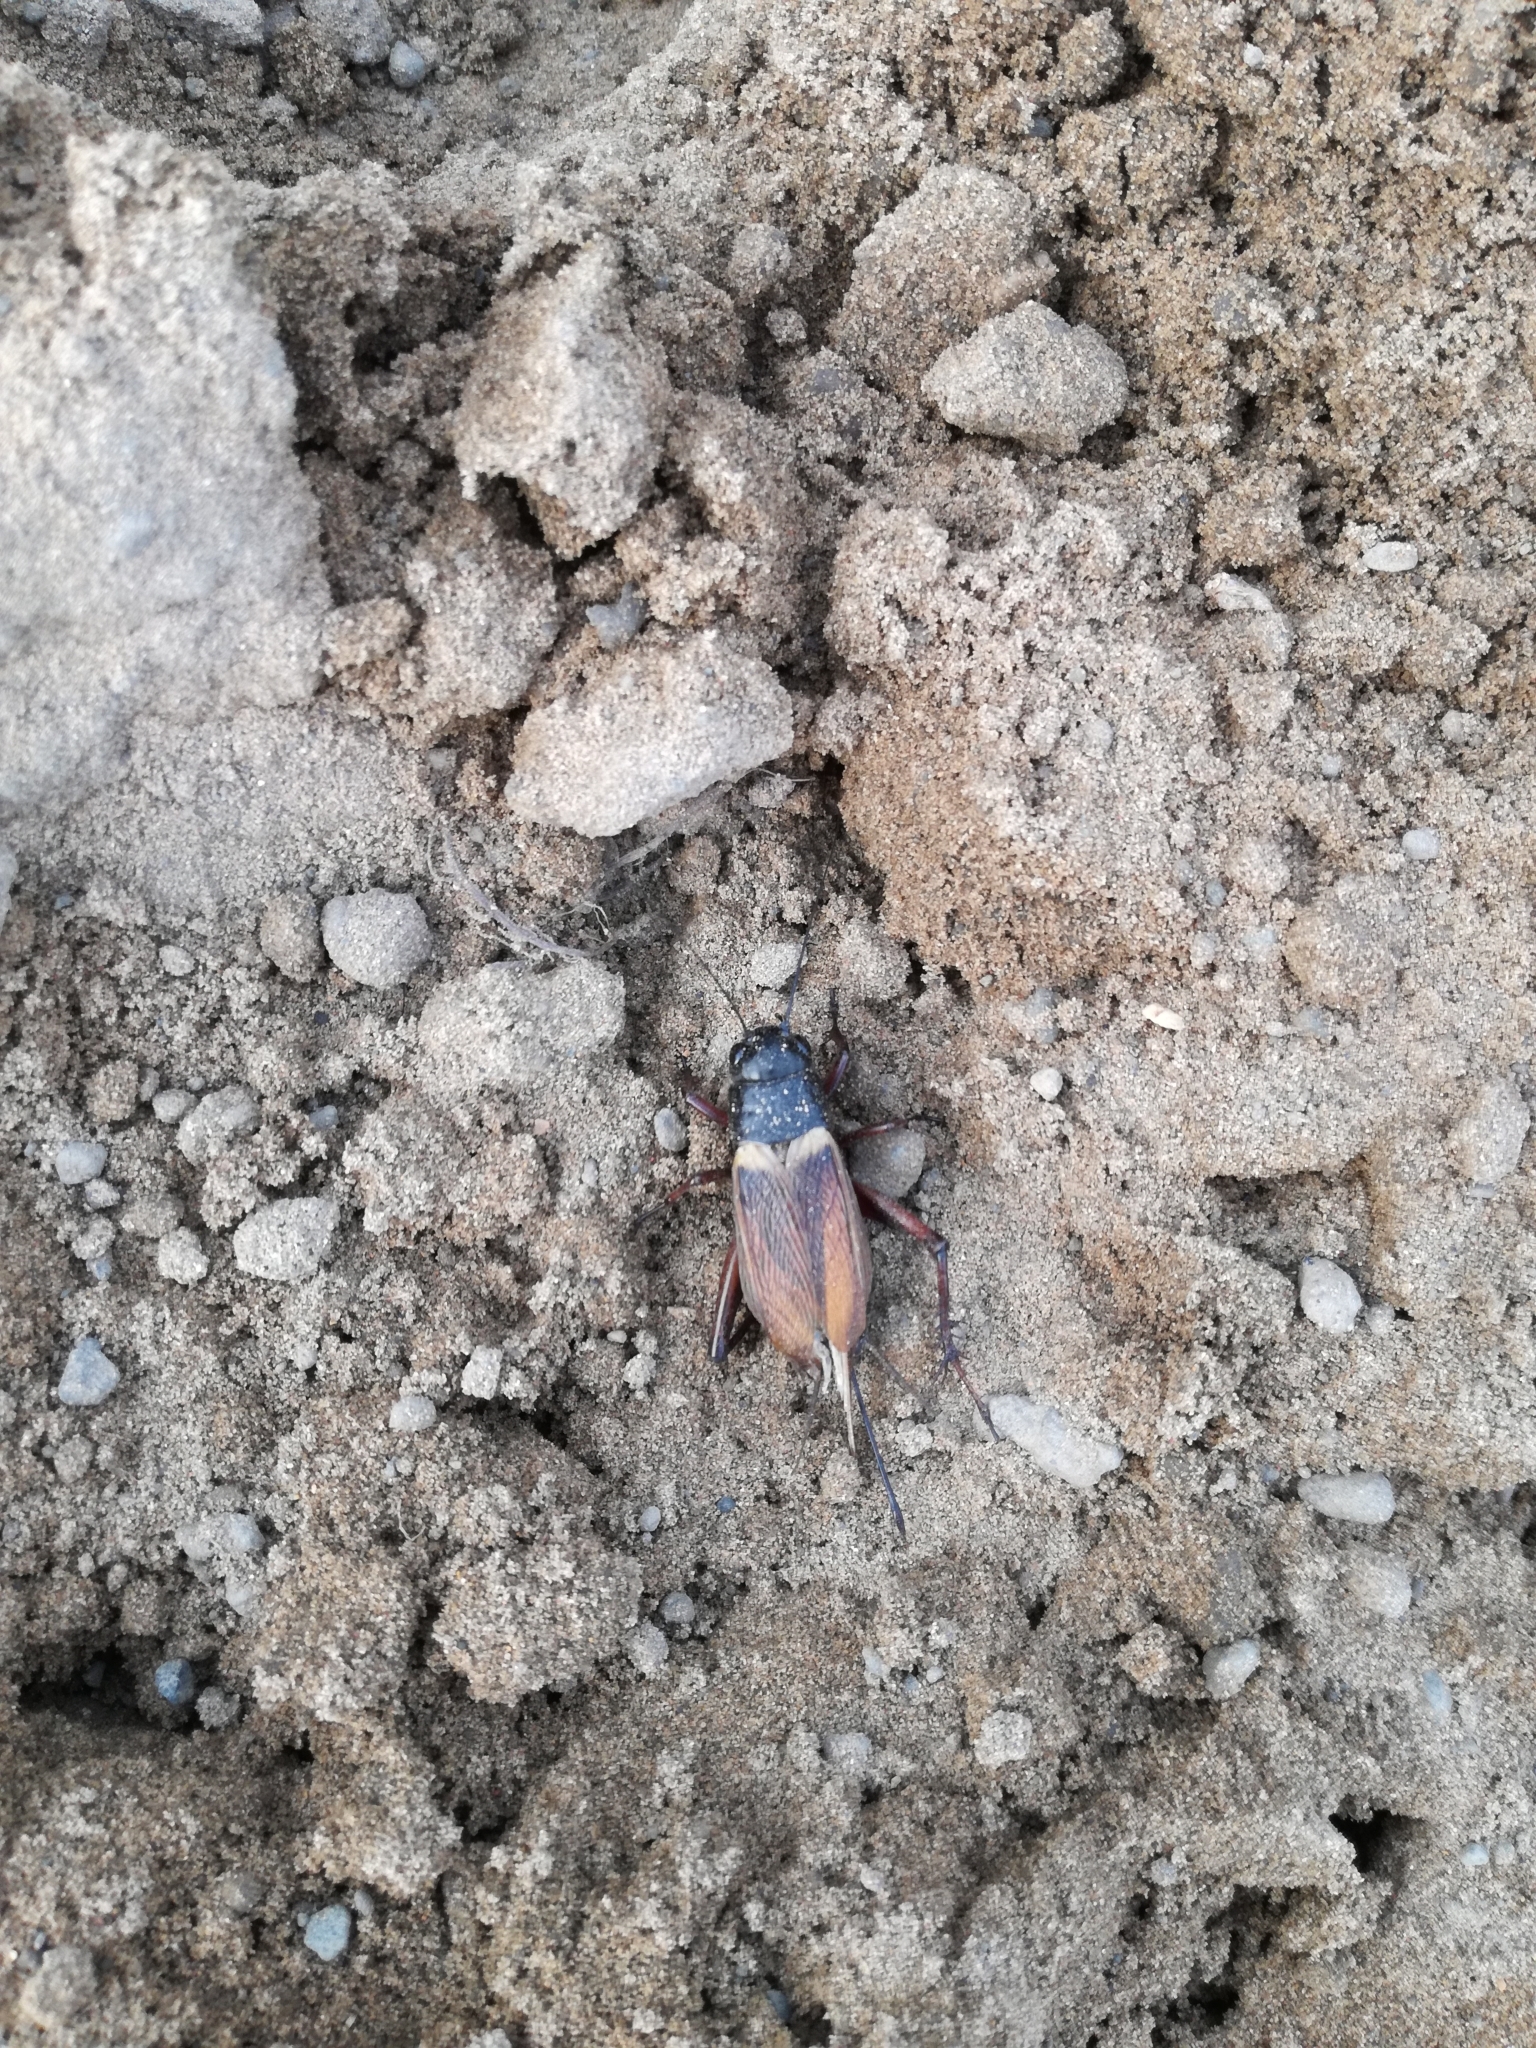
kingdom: Animalia
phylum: Arthropoda
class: Insecta
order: Orthoptera
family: Gryllidae
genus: Gryllus
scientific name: Gryllus bimaculatus
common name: Two-spotted cricket
